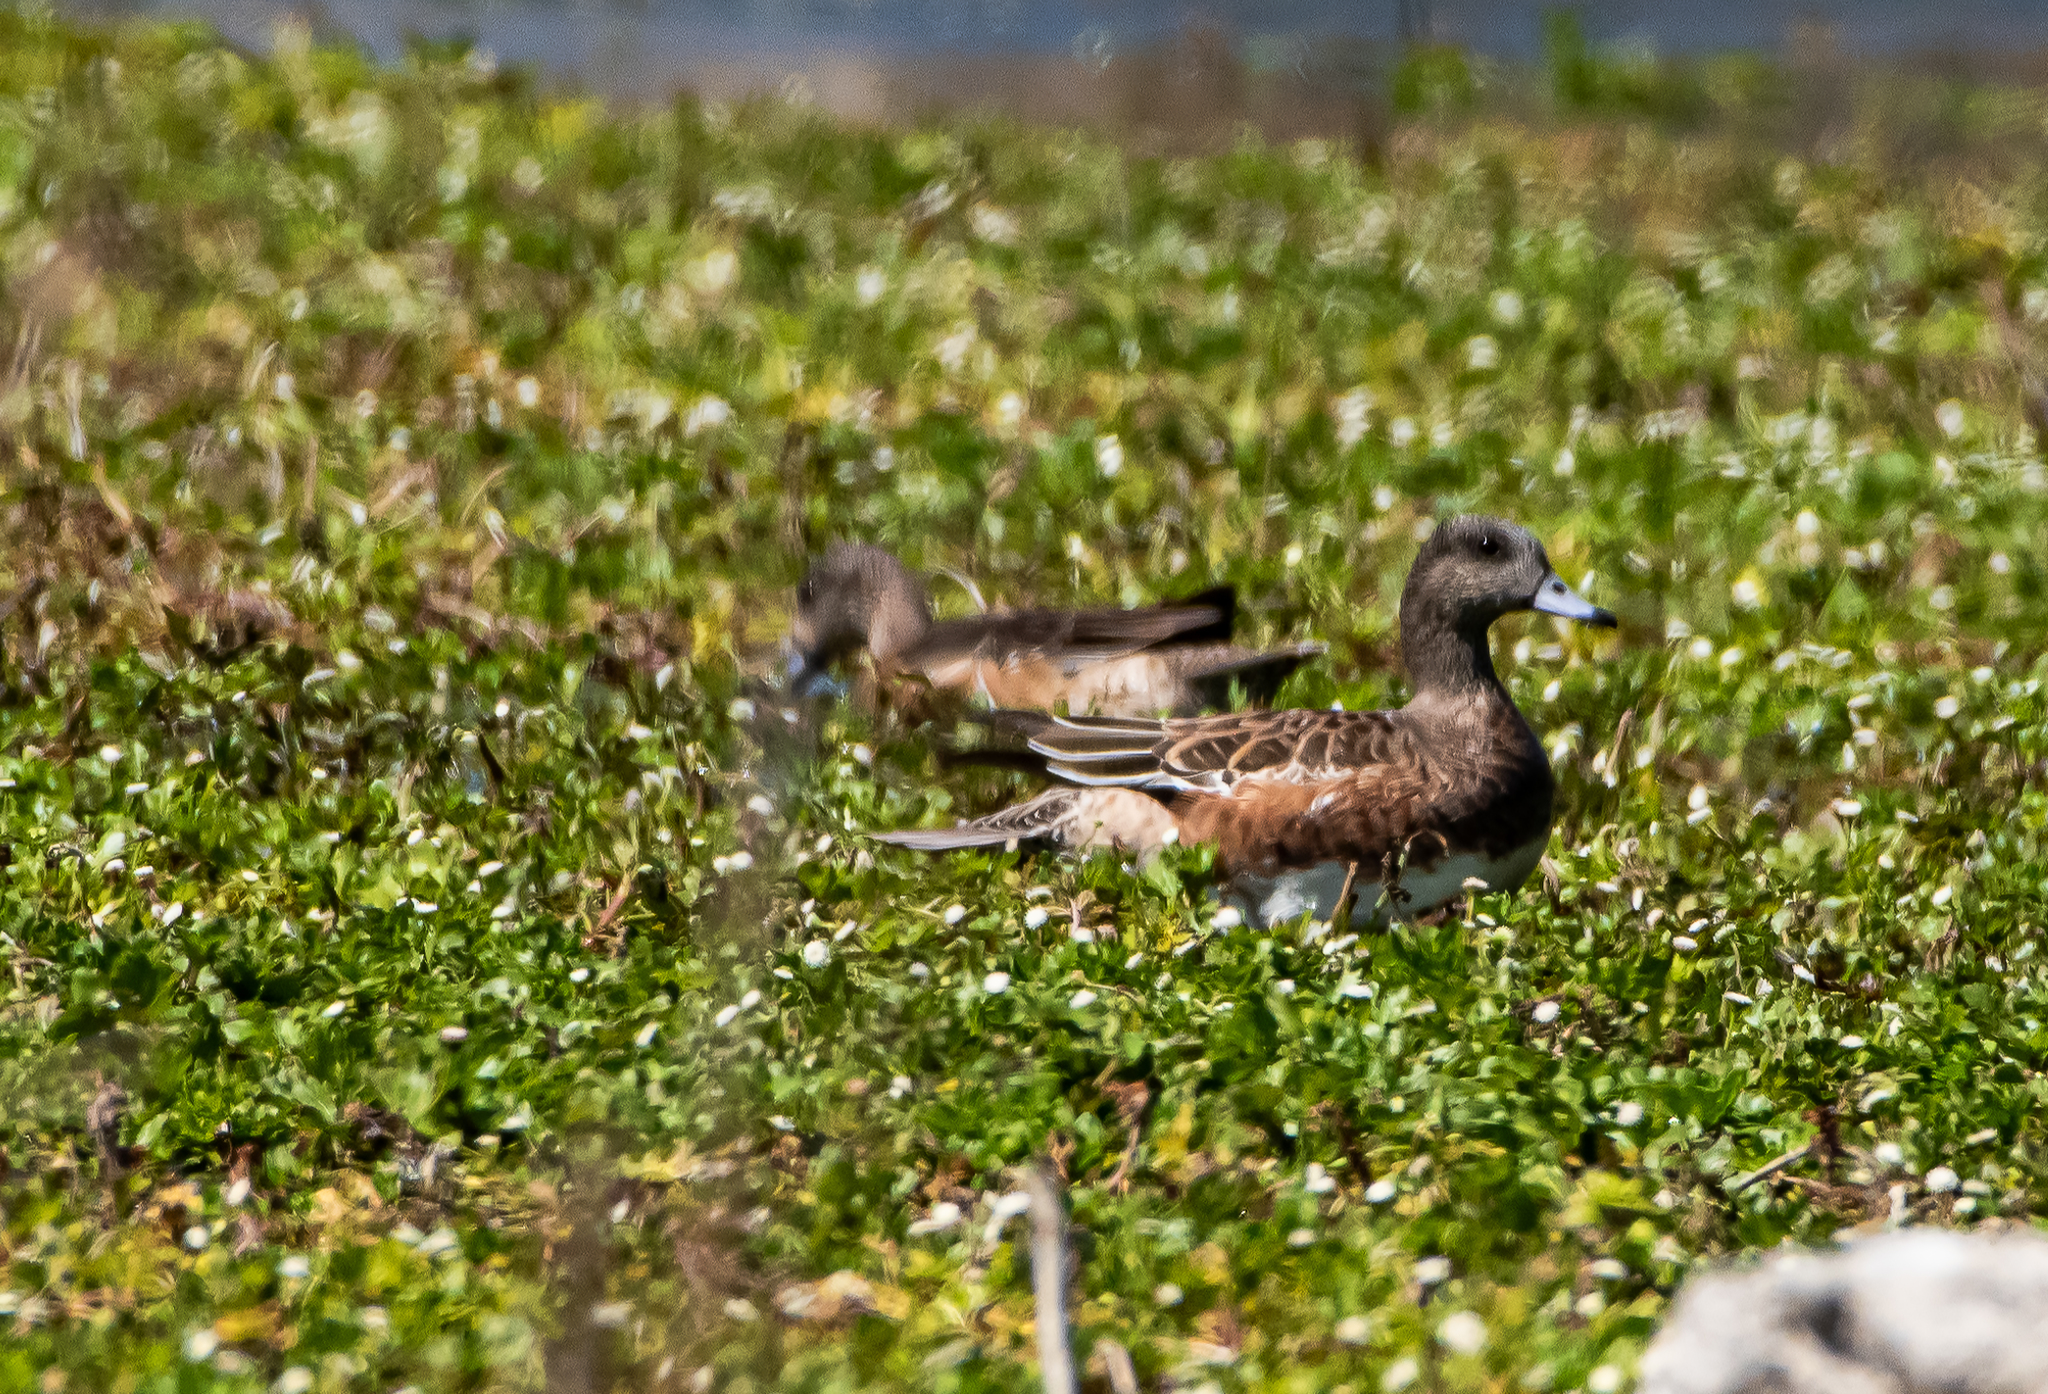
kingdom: Animalia
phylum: Chordata
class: Aves
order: Anseriformes
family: Anatidae
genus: Mareca
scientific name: Mareca americana
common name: American wigeon
